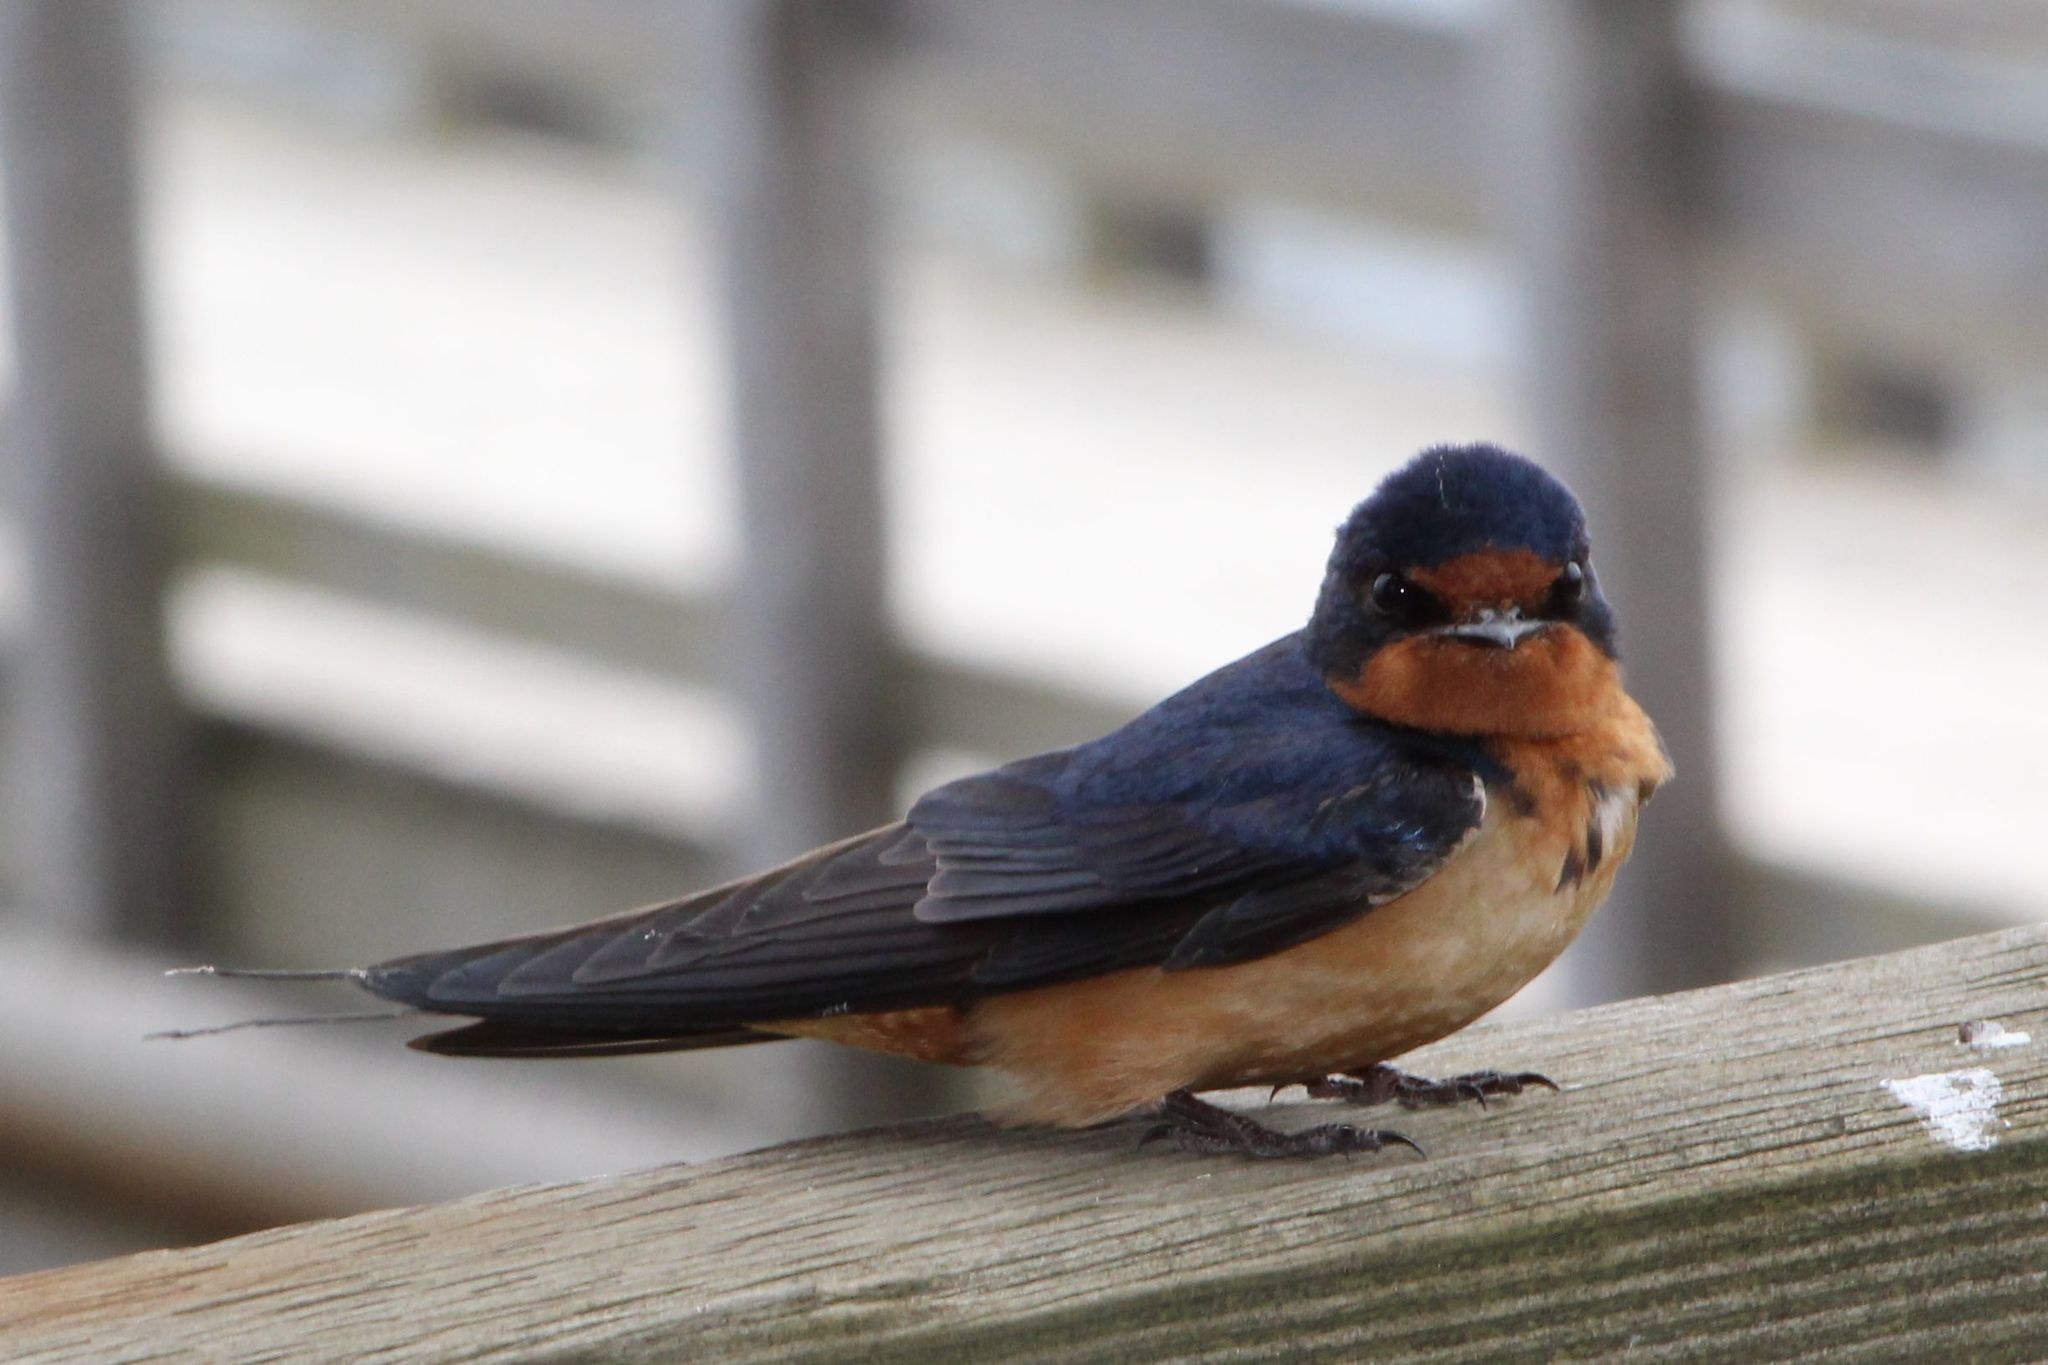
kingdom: Animalia
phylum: Chordata
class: Aves
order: Passeriformes
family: Hirundinidae
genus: Hirundo
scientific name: Hirundo rustica
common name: Barn swallow
